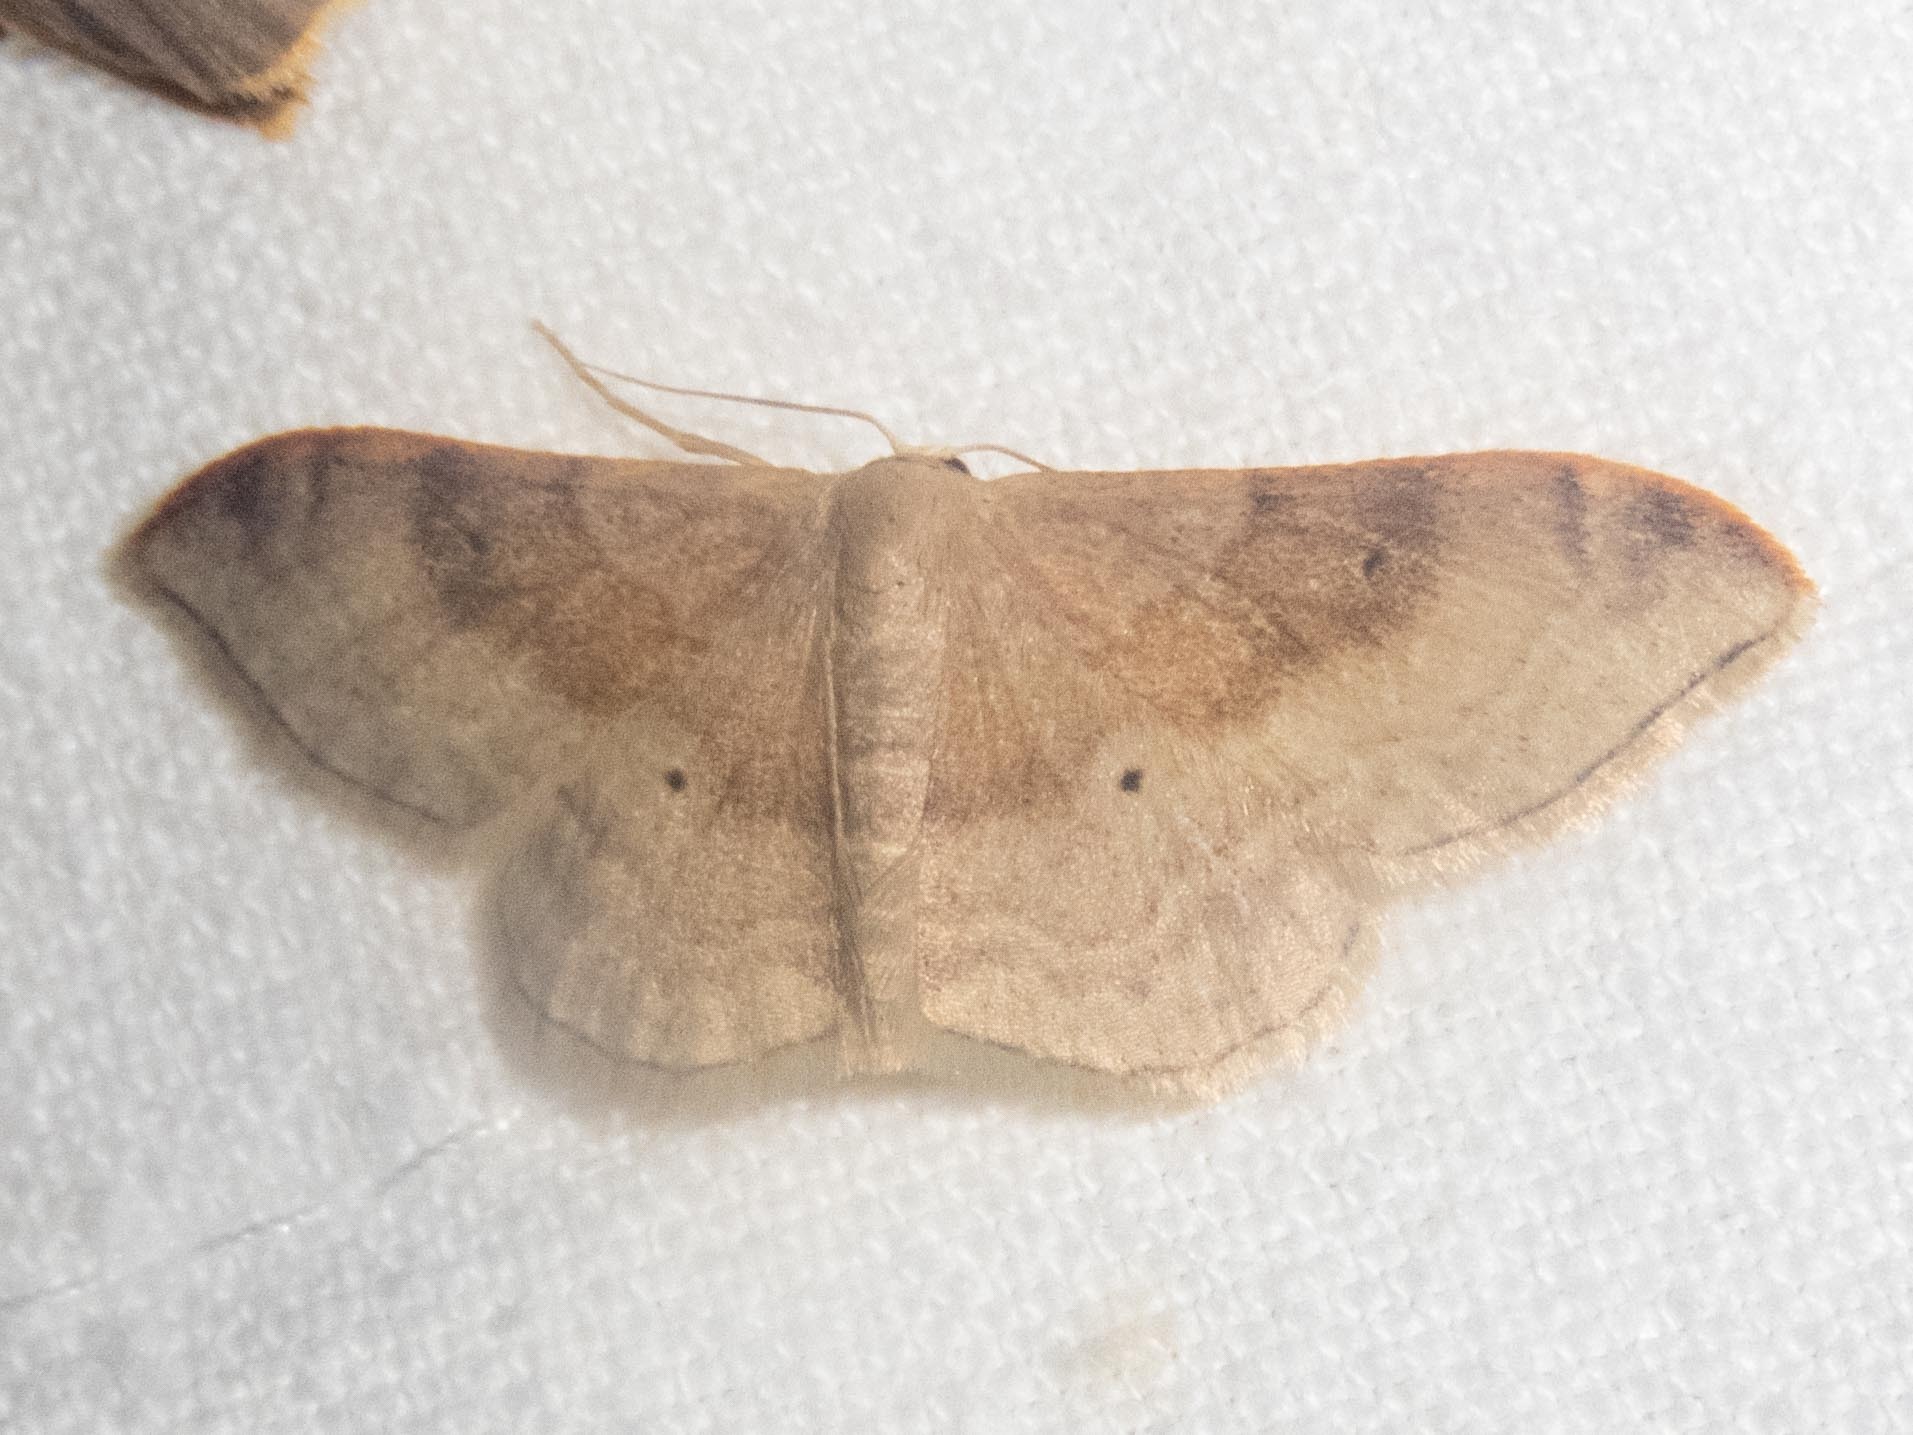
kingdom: Animalia
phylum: Arthropoda
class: Insecta
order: Lepidoptera
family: Geometridae
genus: Idaea
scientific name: Idaea degeneraria
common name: Portland ribbon wave
